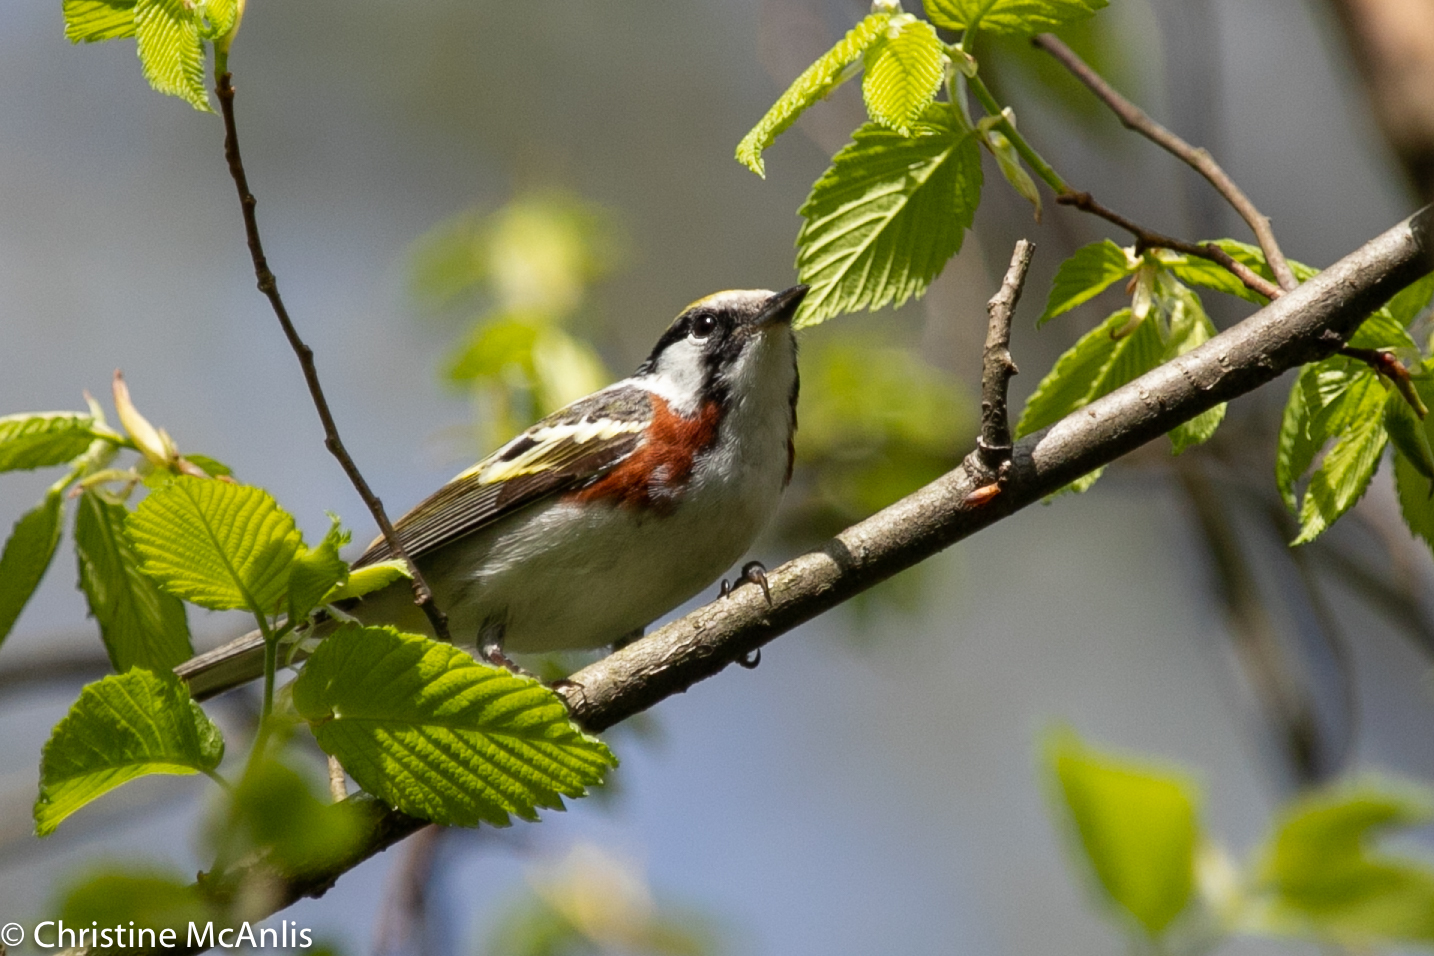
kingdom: Animalia
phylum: Chordata
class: Aves
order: Passeriformes
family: Parulidae
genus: Setophaga
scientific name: Setophaga pensylvanica
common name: Chestnut-sided warbler
